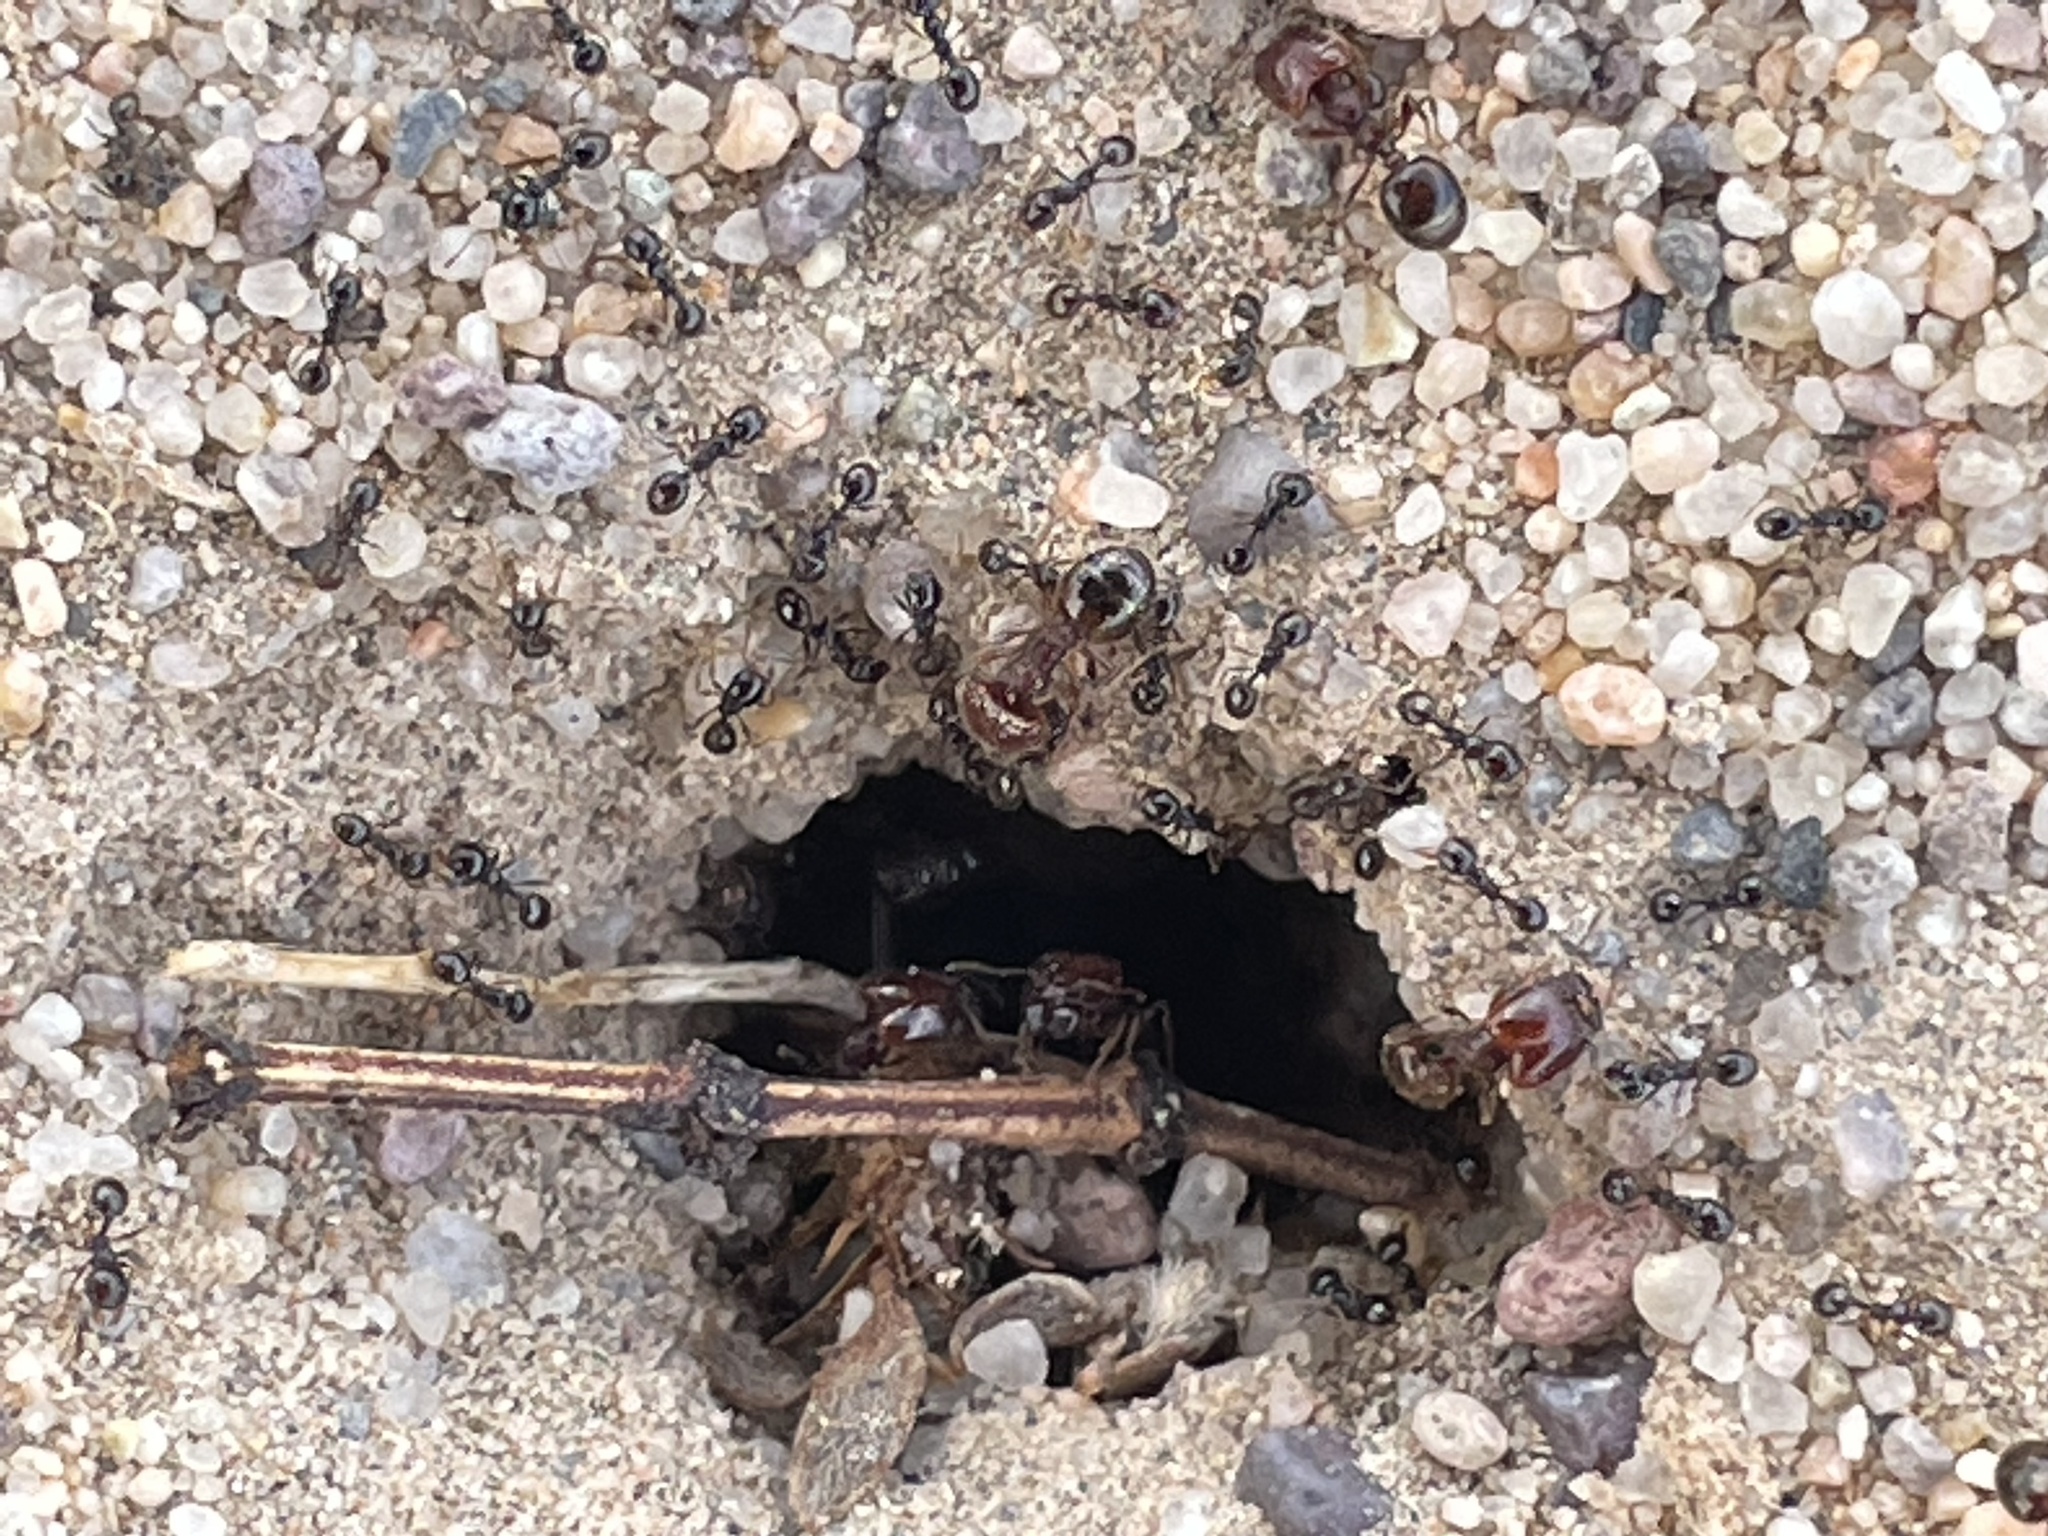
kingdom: Animalia
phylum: Arthropoda
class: Insecta
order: Hymenoptera
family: Formicidae
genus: Pheidole
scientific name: Pheidole xerophila
